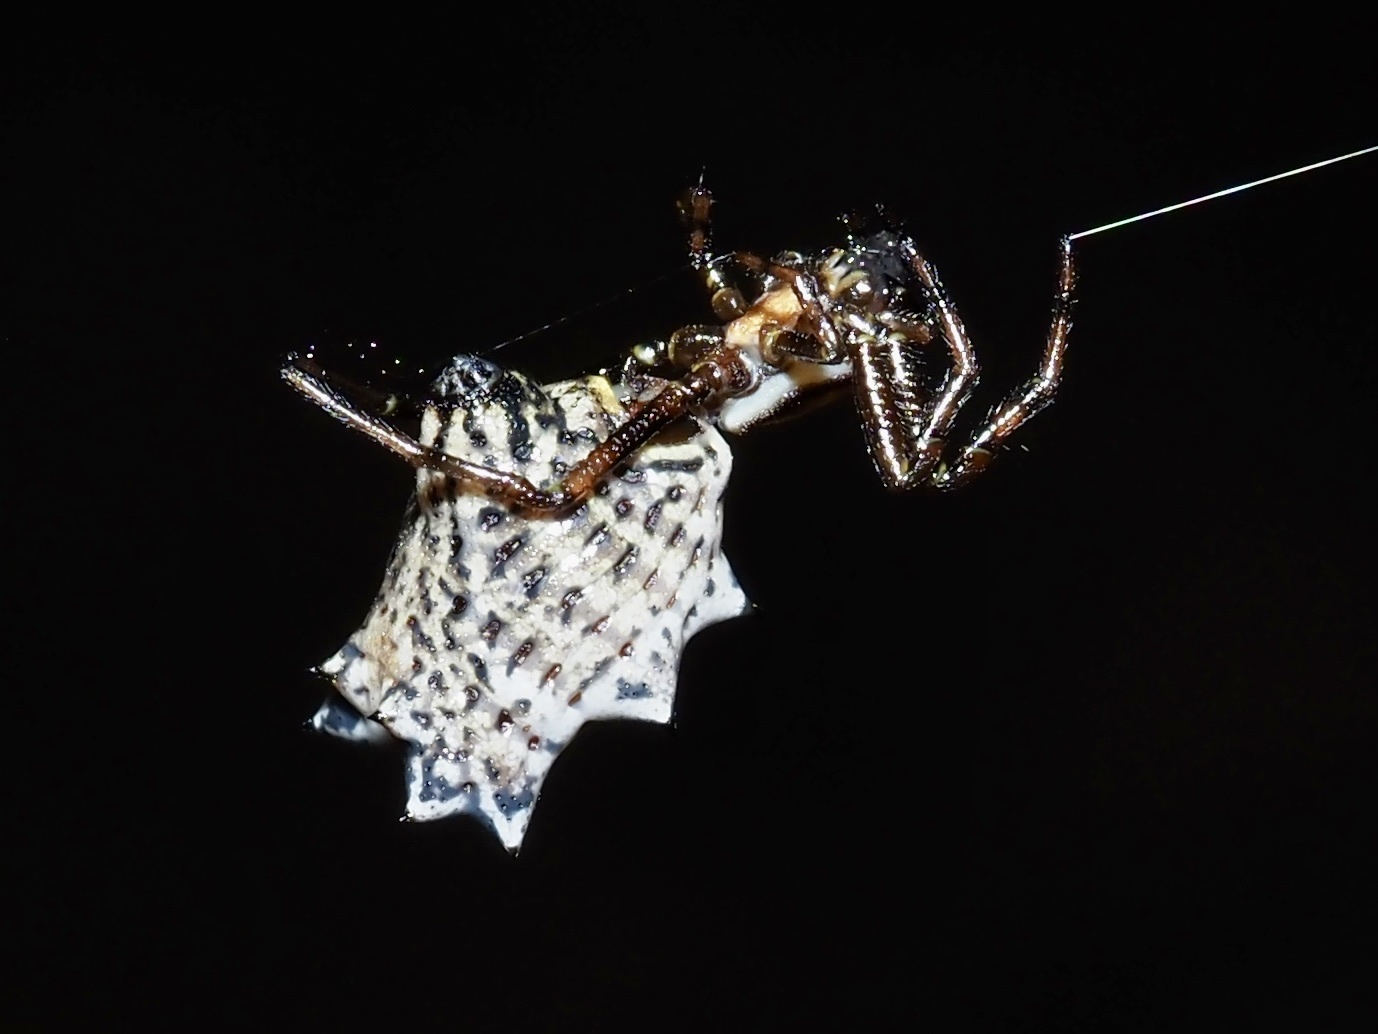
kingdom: Animalia
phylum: Arthropoda
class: Arachnida
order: Araneae
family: Araneidae
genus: Micrathena
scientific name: Micrathena gracilis
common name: Orb weavers
